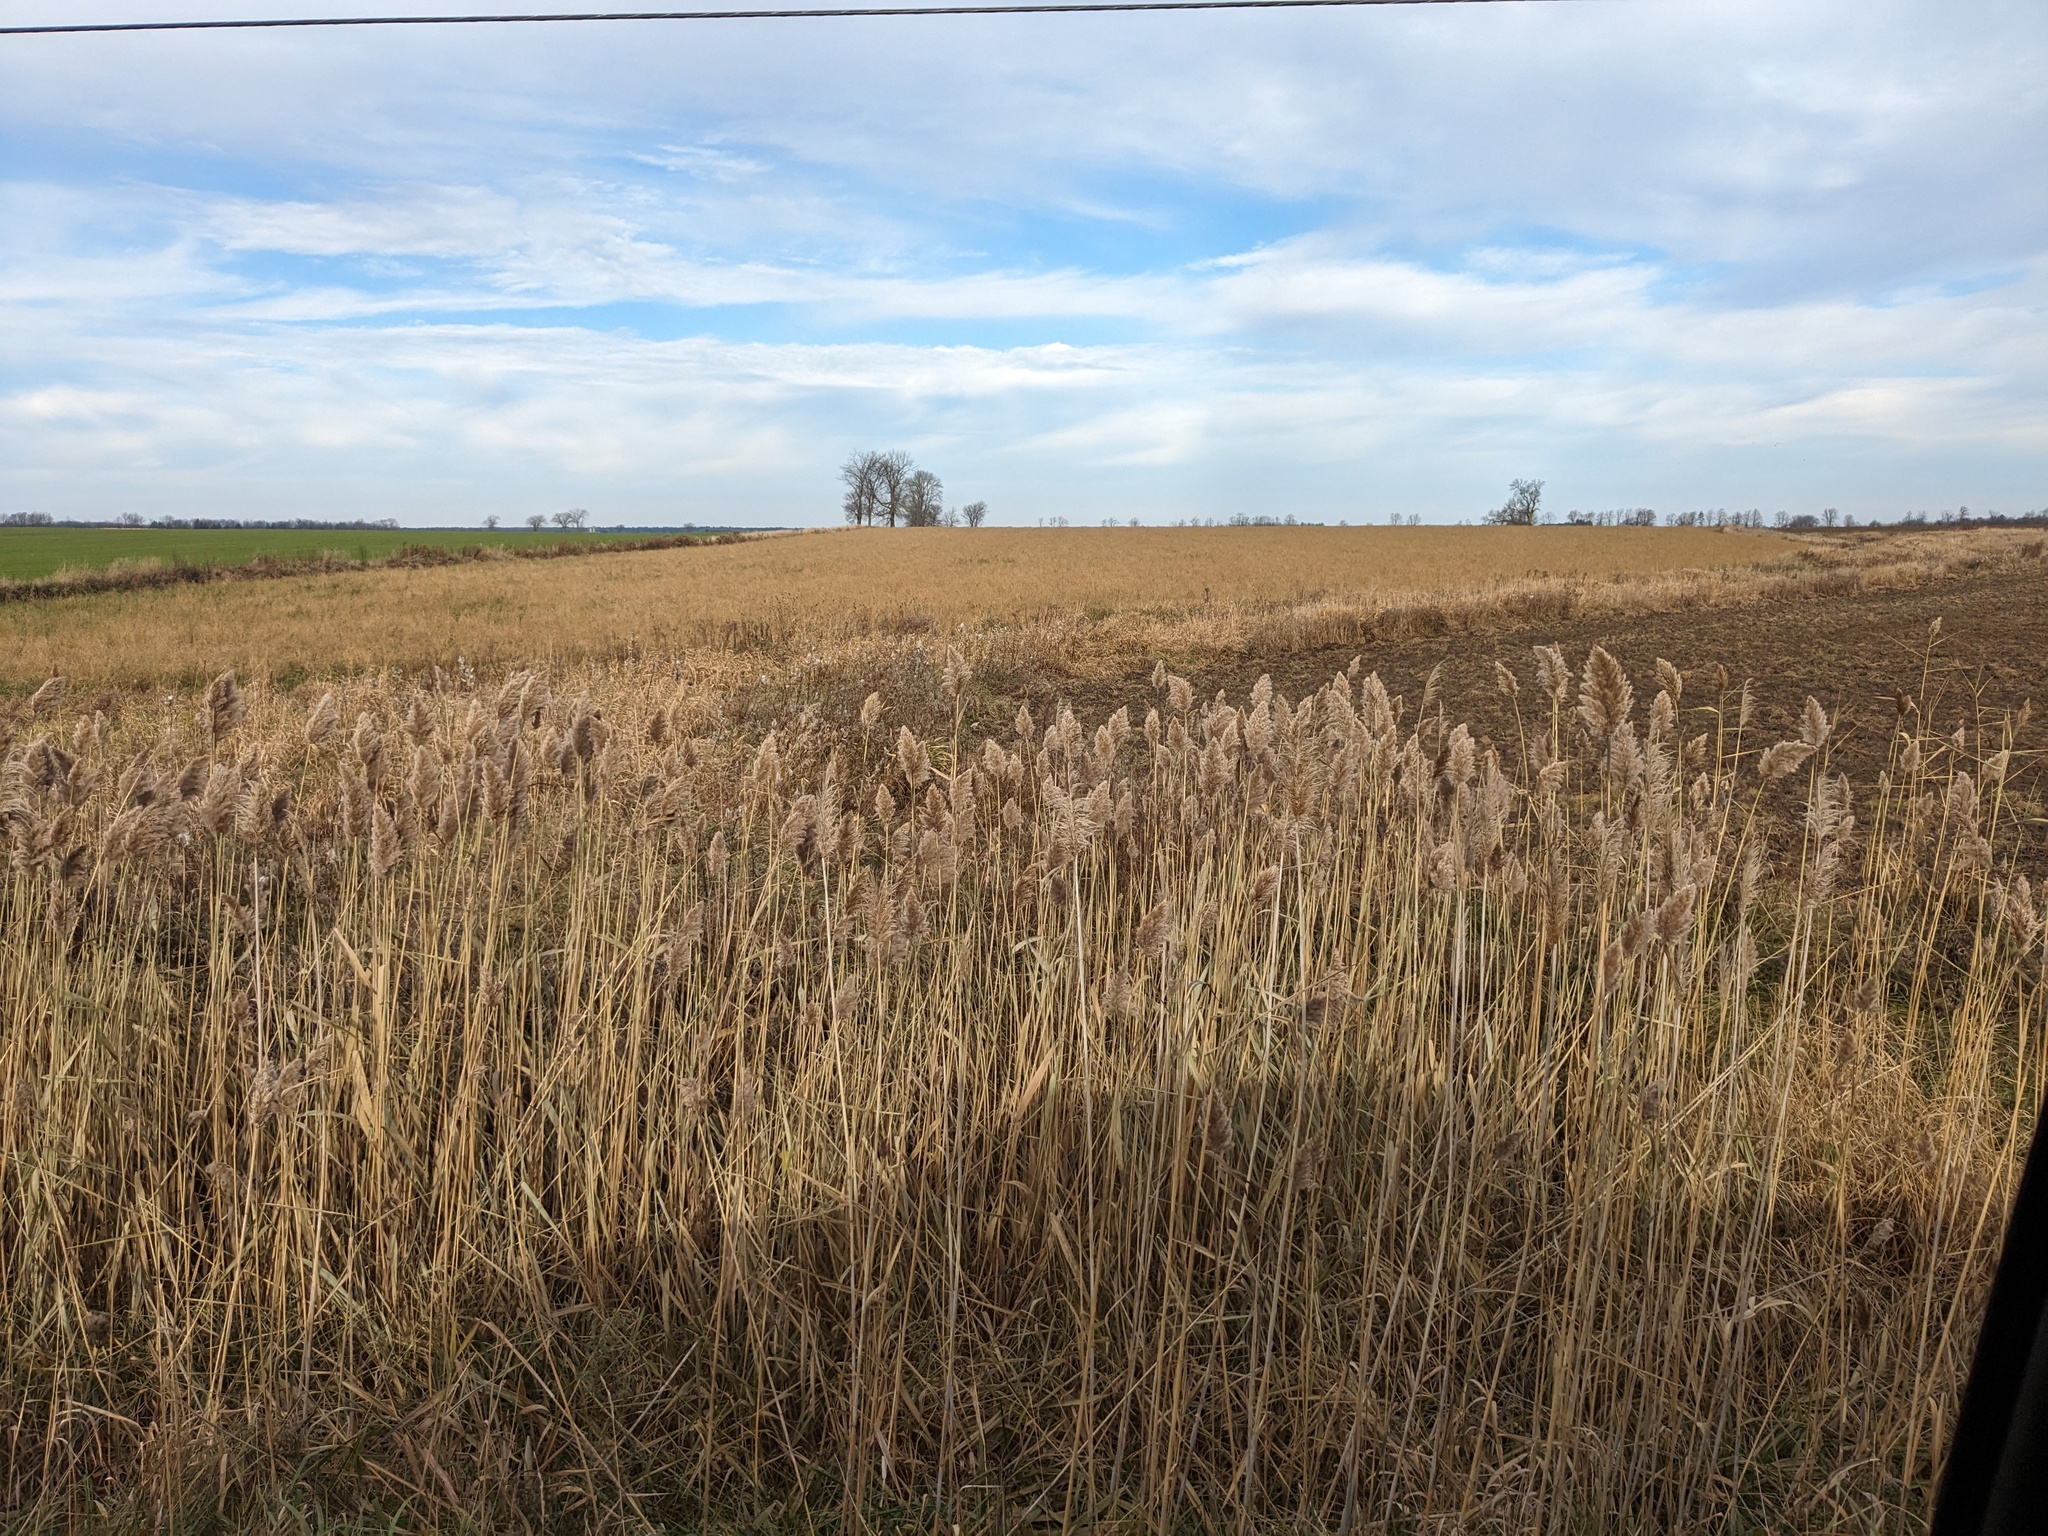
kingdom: Plantae
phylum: Tracheophyta
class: Liliopsida
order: Poales
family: Poaceae
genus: Phragmites
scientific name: Phragmites australis
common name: Common reed
